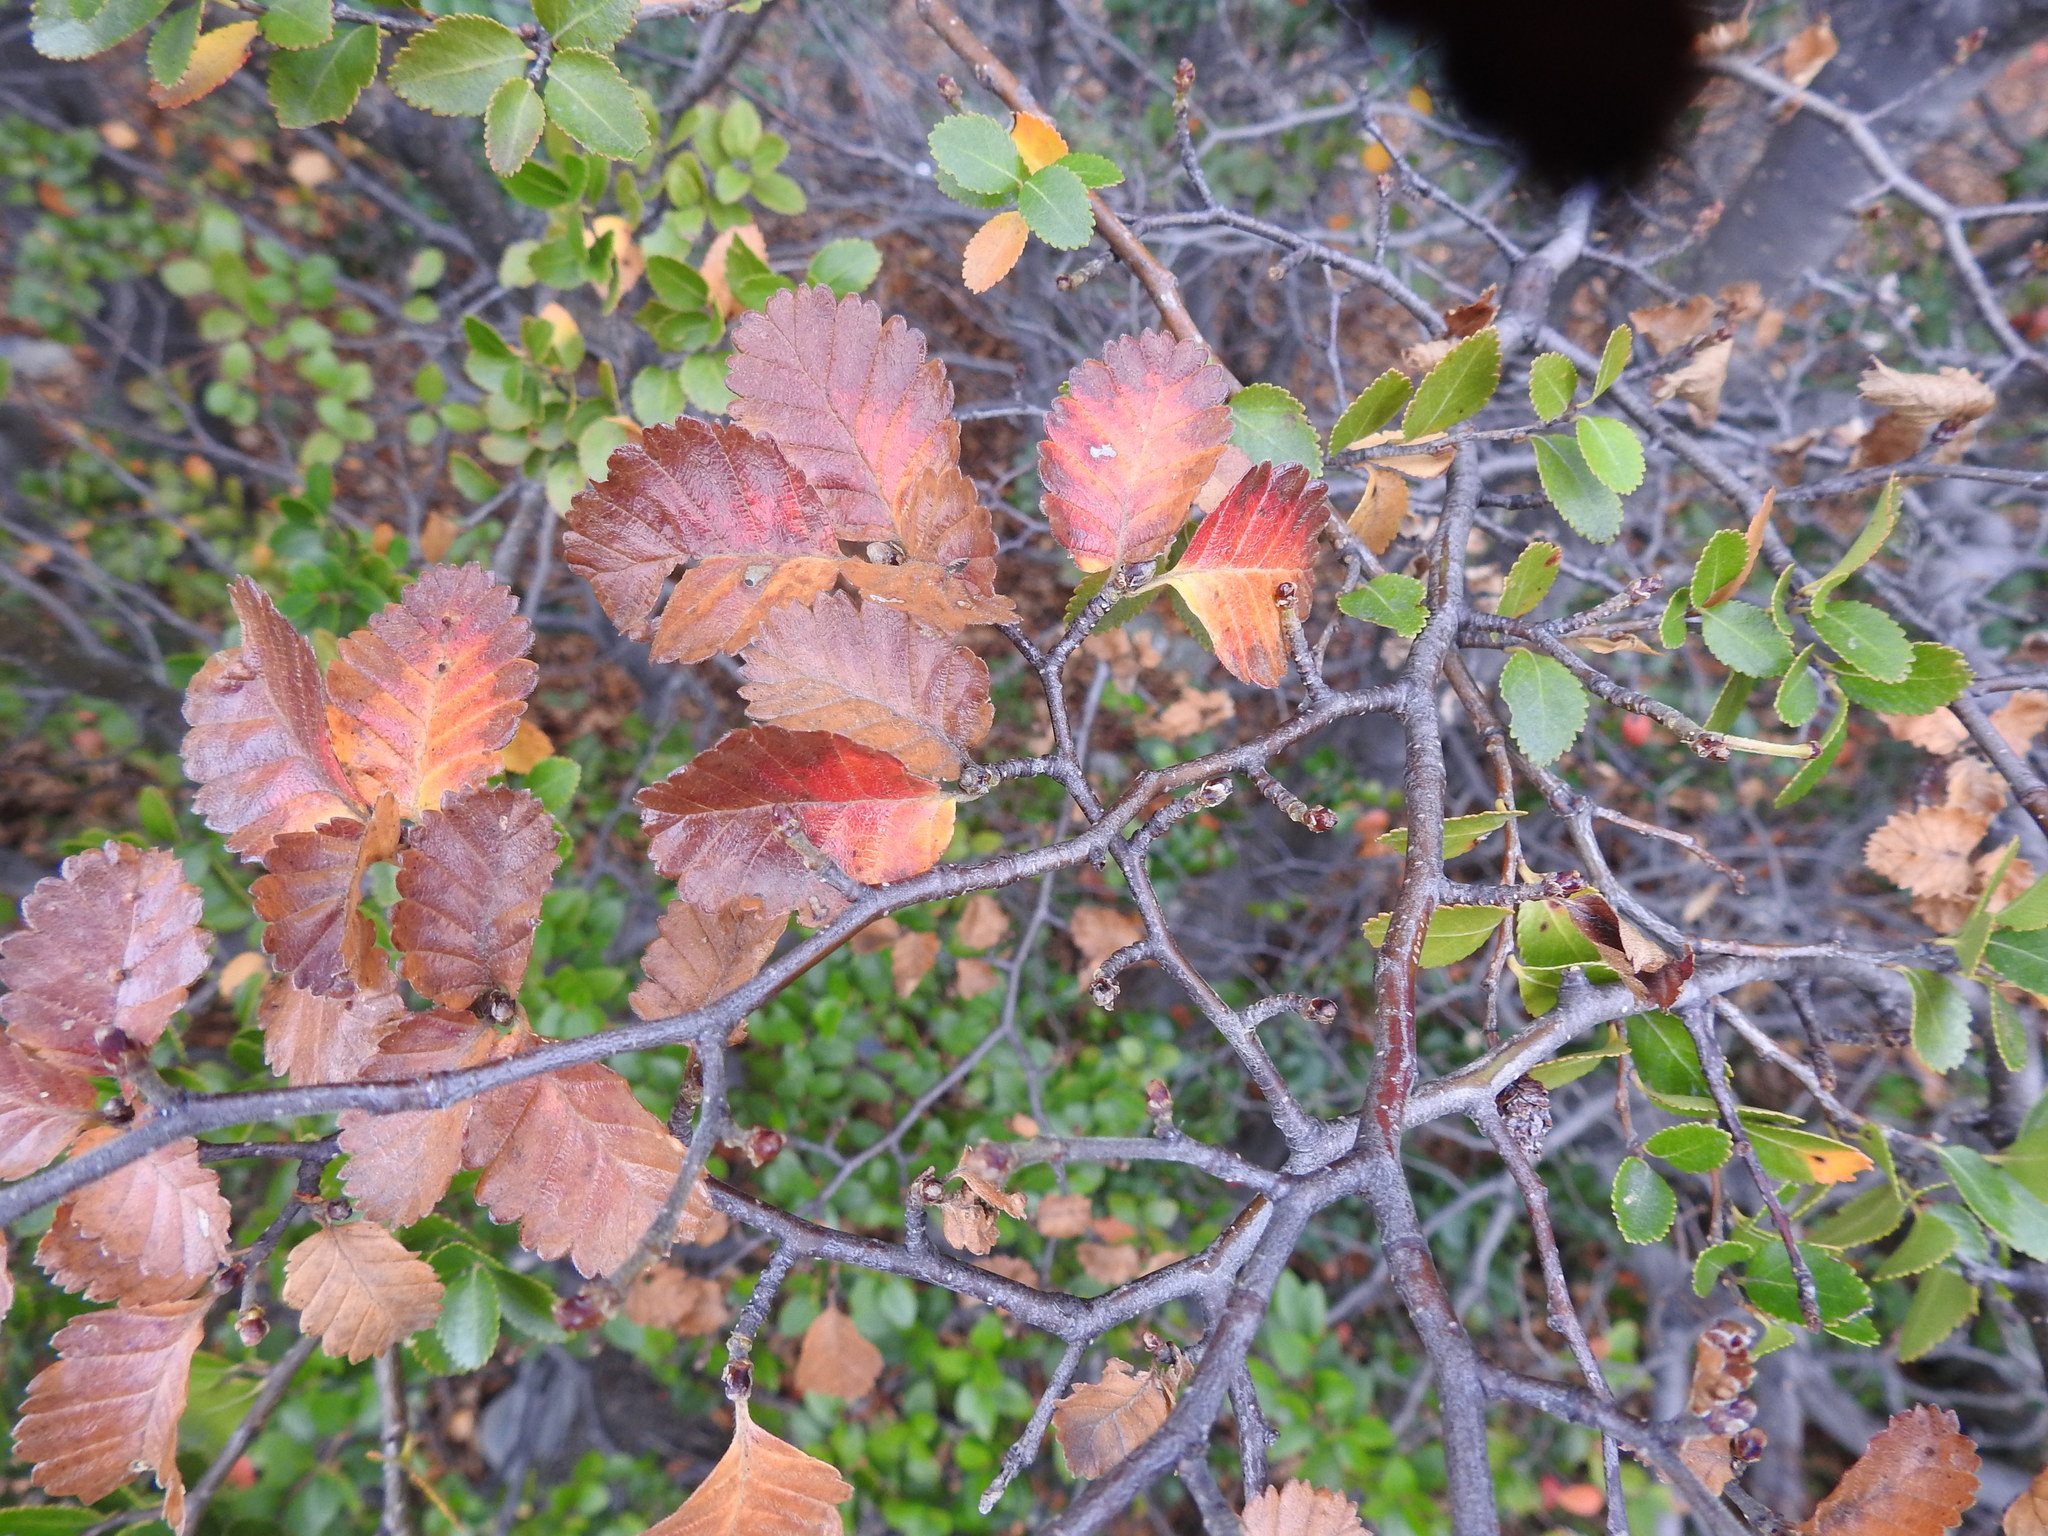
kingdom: Plantae
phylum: Tracheophyta
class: Magnoliopsida
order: Fagales
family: Nothofagaceae
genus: Nothofagus
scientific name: Nothofagus pumilio
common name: Lenga beech
